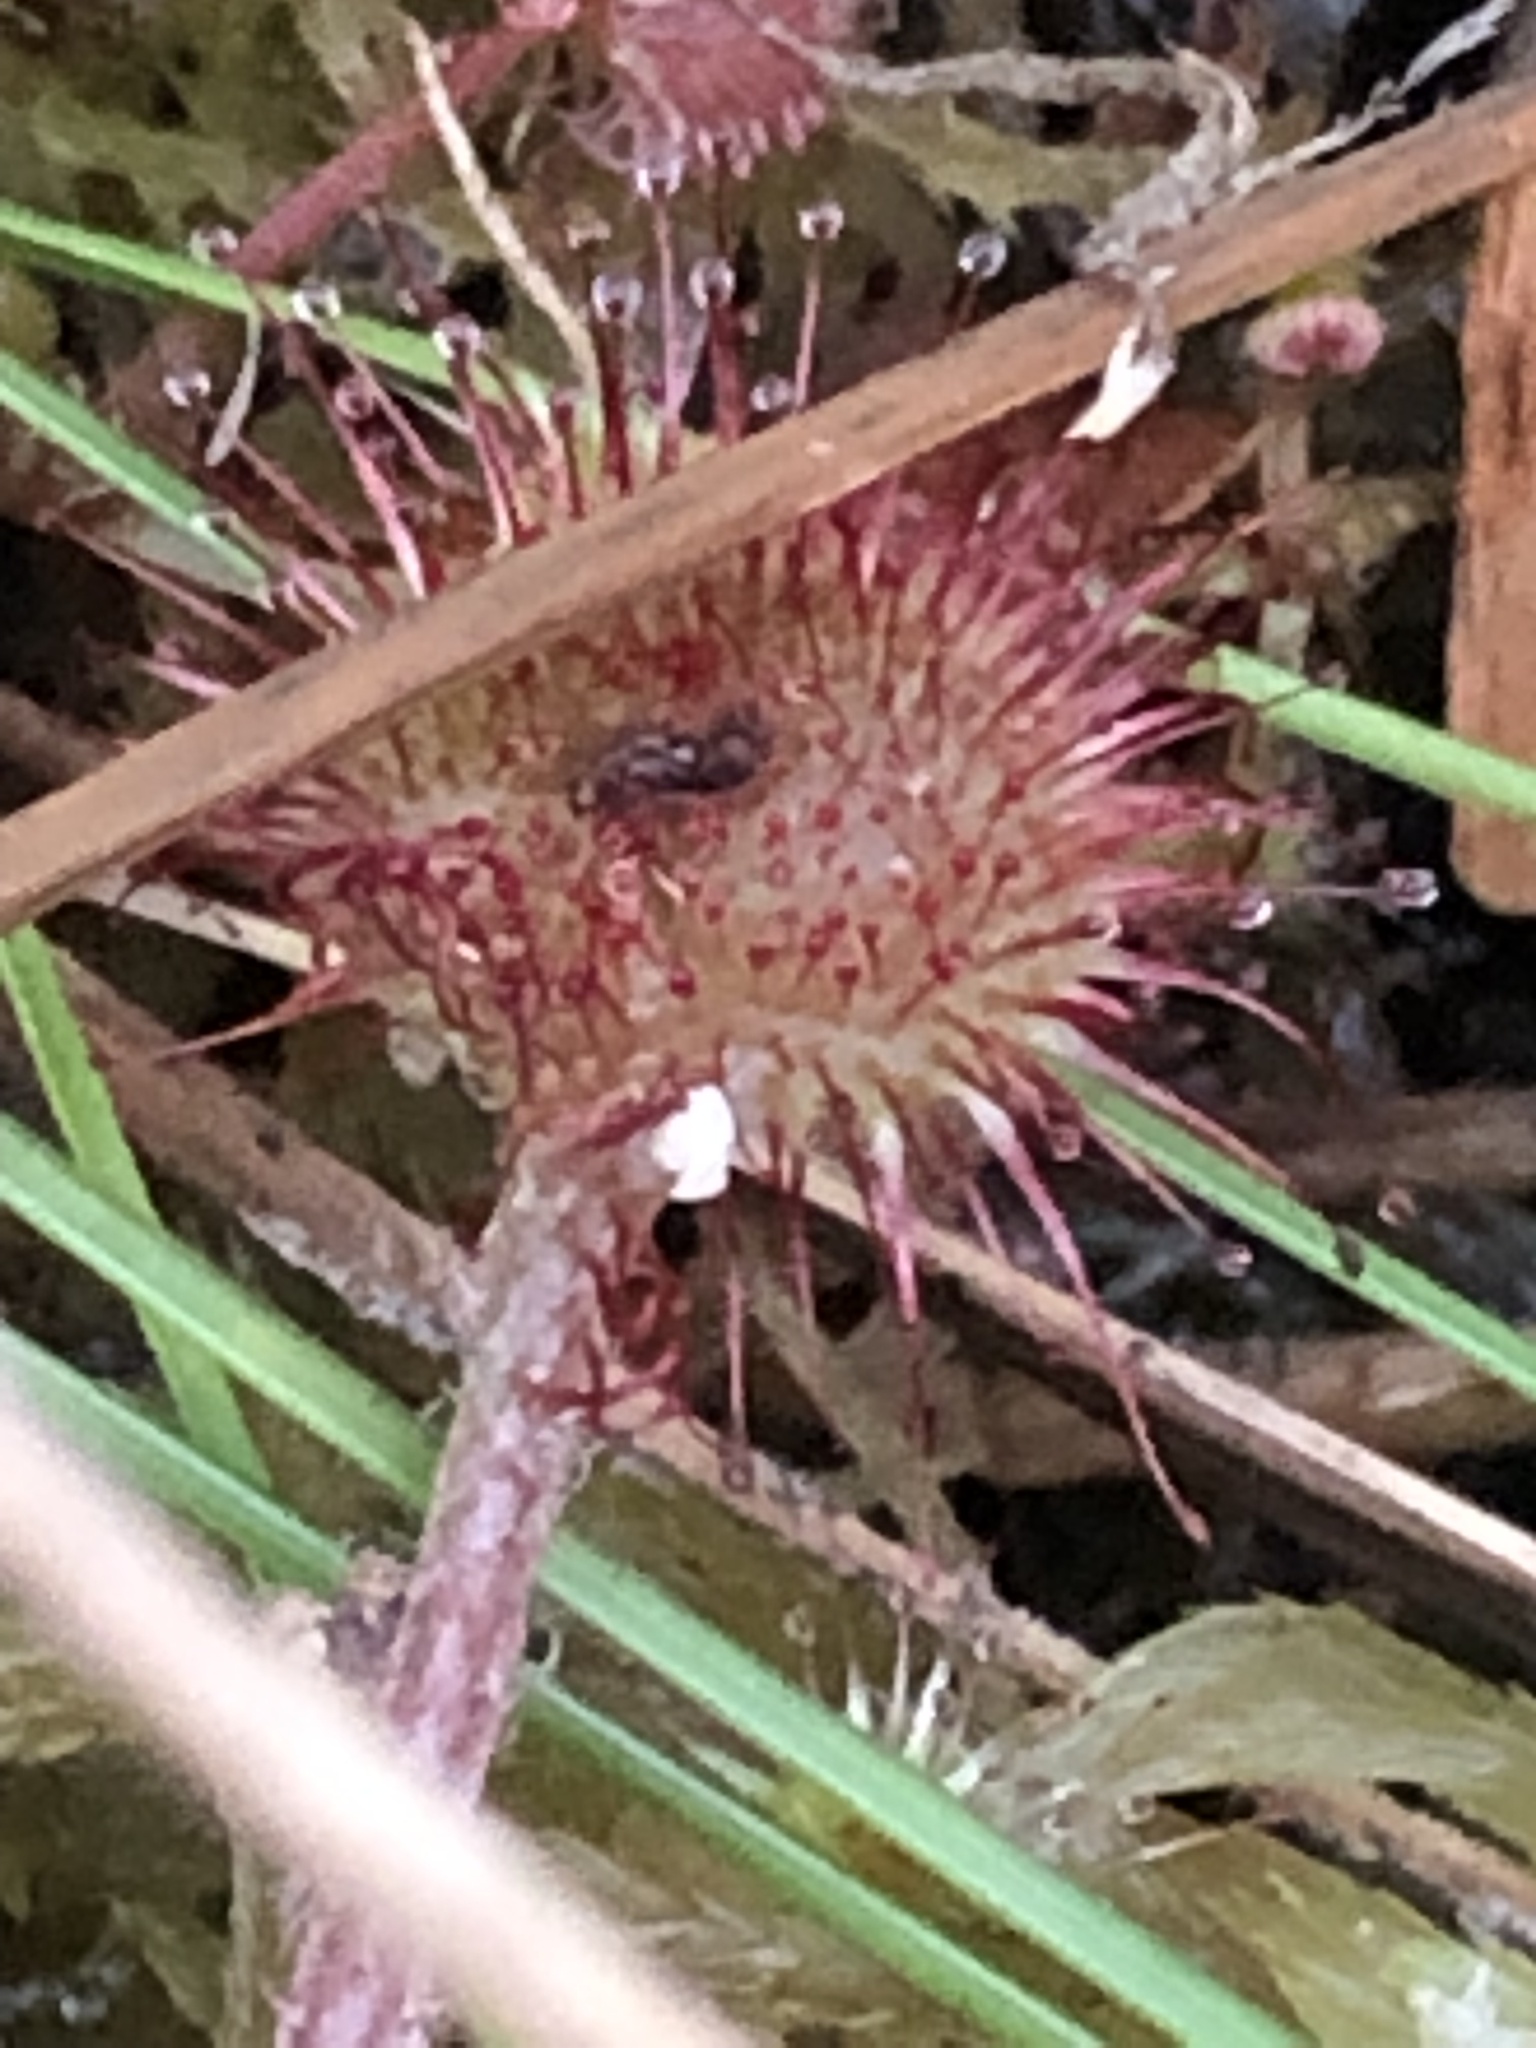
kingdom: Plantae
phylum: Tracheophyta
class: Magnoliopsida
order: Caryophyllales
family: Droseraceae
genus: Drosera
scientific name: Drosera rotundifolia
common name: Round-leaved sundew
